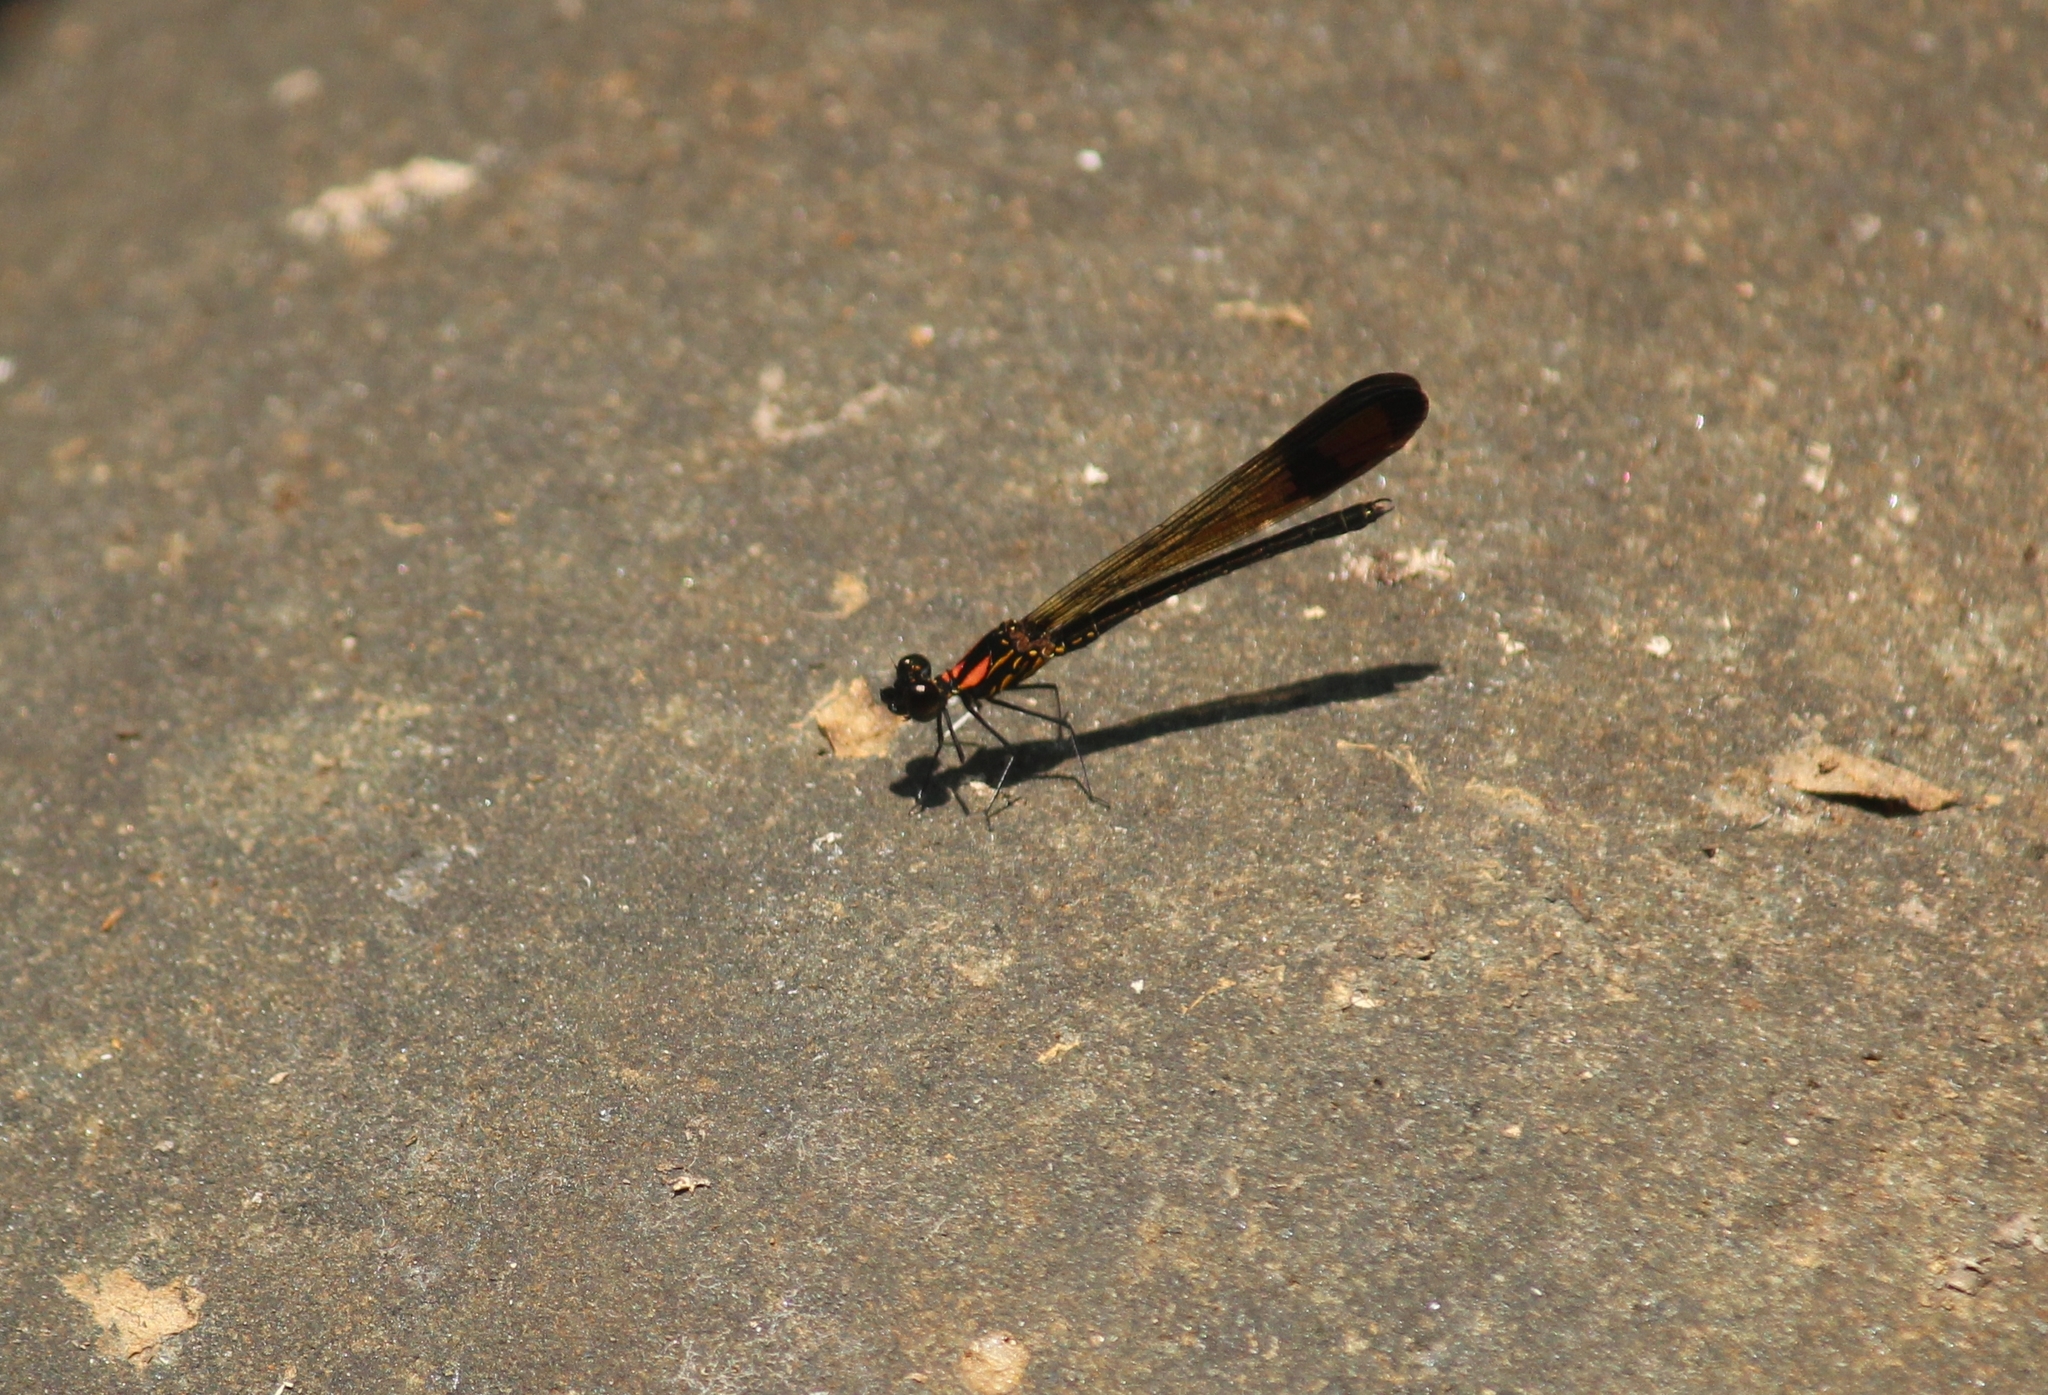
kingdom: Animalia
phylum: Arthropoda
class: Insecta
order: Odonata
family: Chlorocyphidae
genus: Heliocypha
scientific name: Heliocypha bisignata
